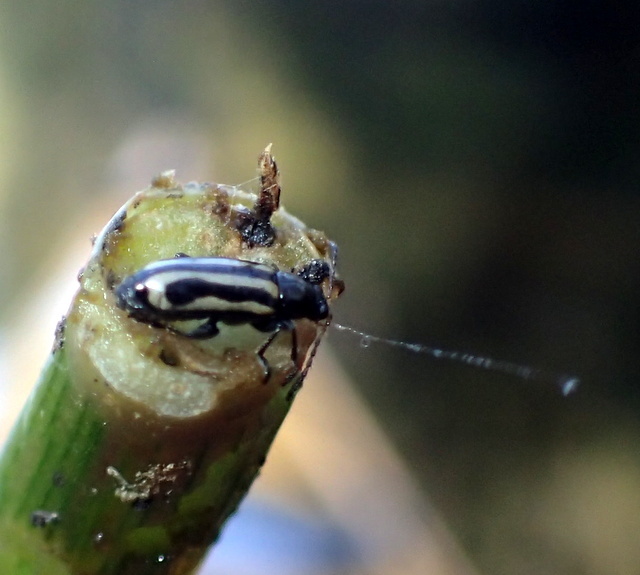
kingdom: Animalia
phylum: Arthropoda
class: Insecta
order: Coleoptera
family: Chrysomelidae
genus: Agasicles
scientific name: Agasicles hygrophila
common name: Alligatorweed flea beetle
